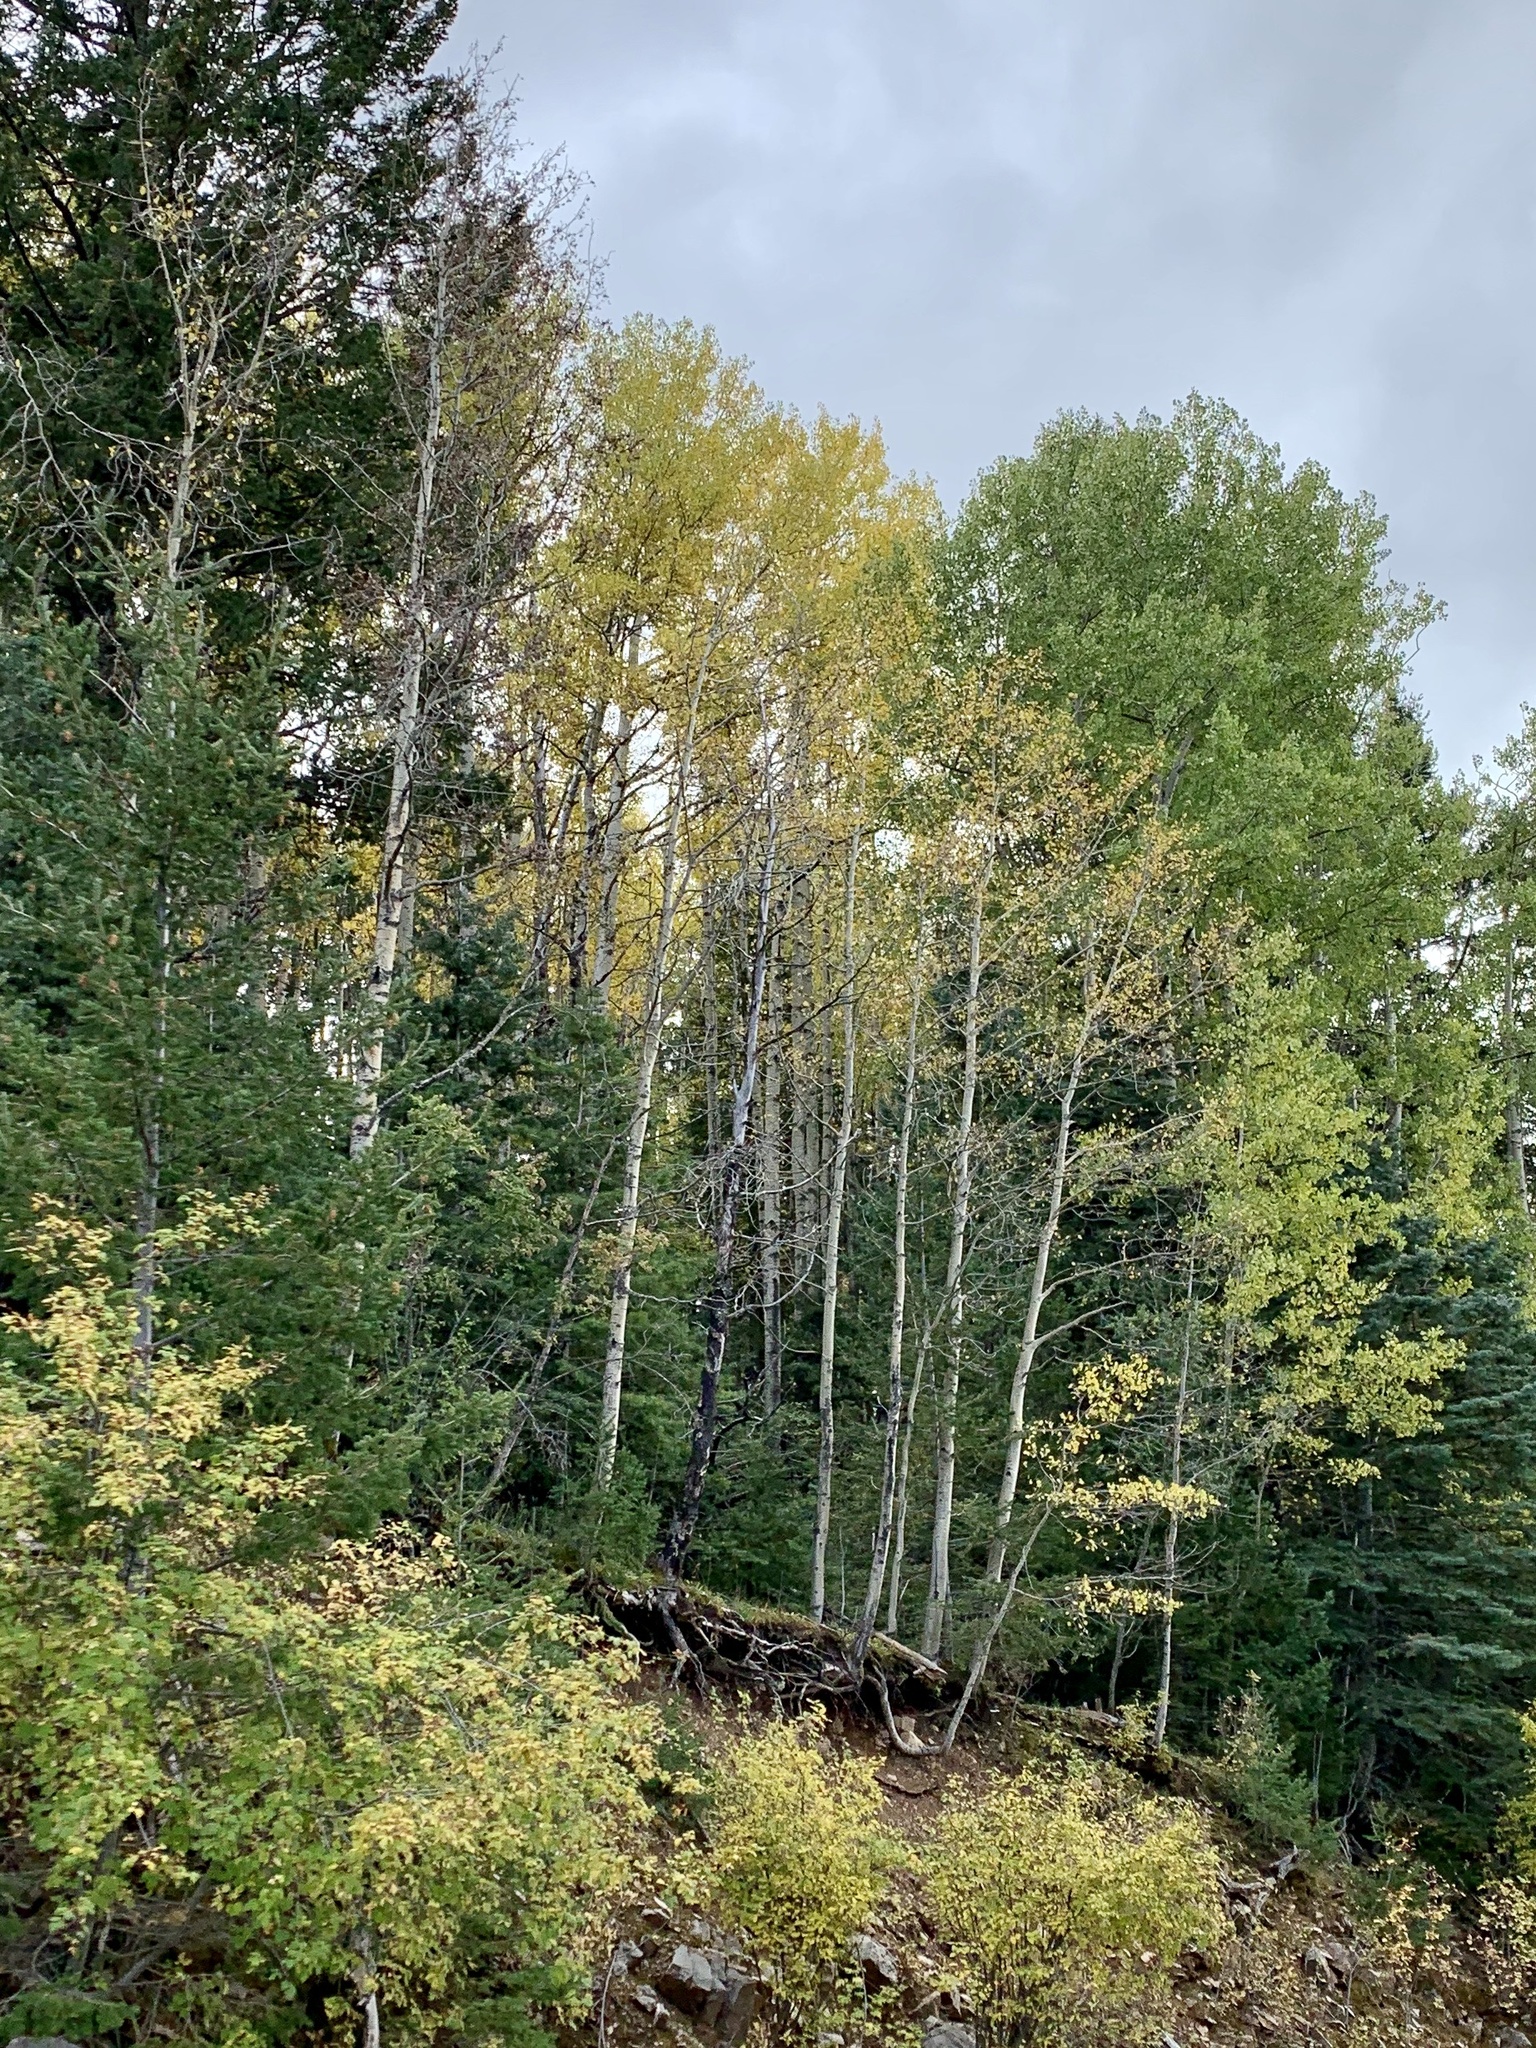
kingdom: Plantae
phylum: Tracheophyta
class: Magnoliopsida
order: Malpighiales
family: Salicaceae
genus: Populus
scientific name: Populus tremuloides
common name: Quaking aspen
